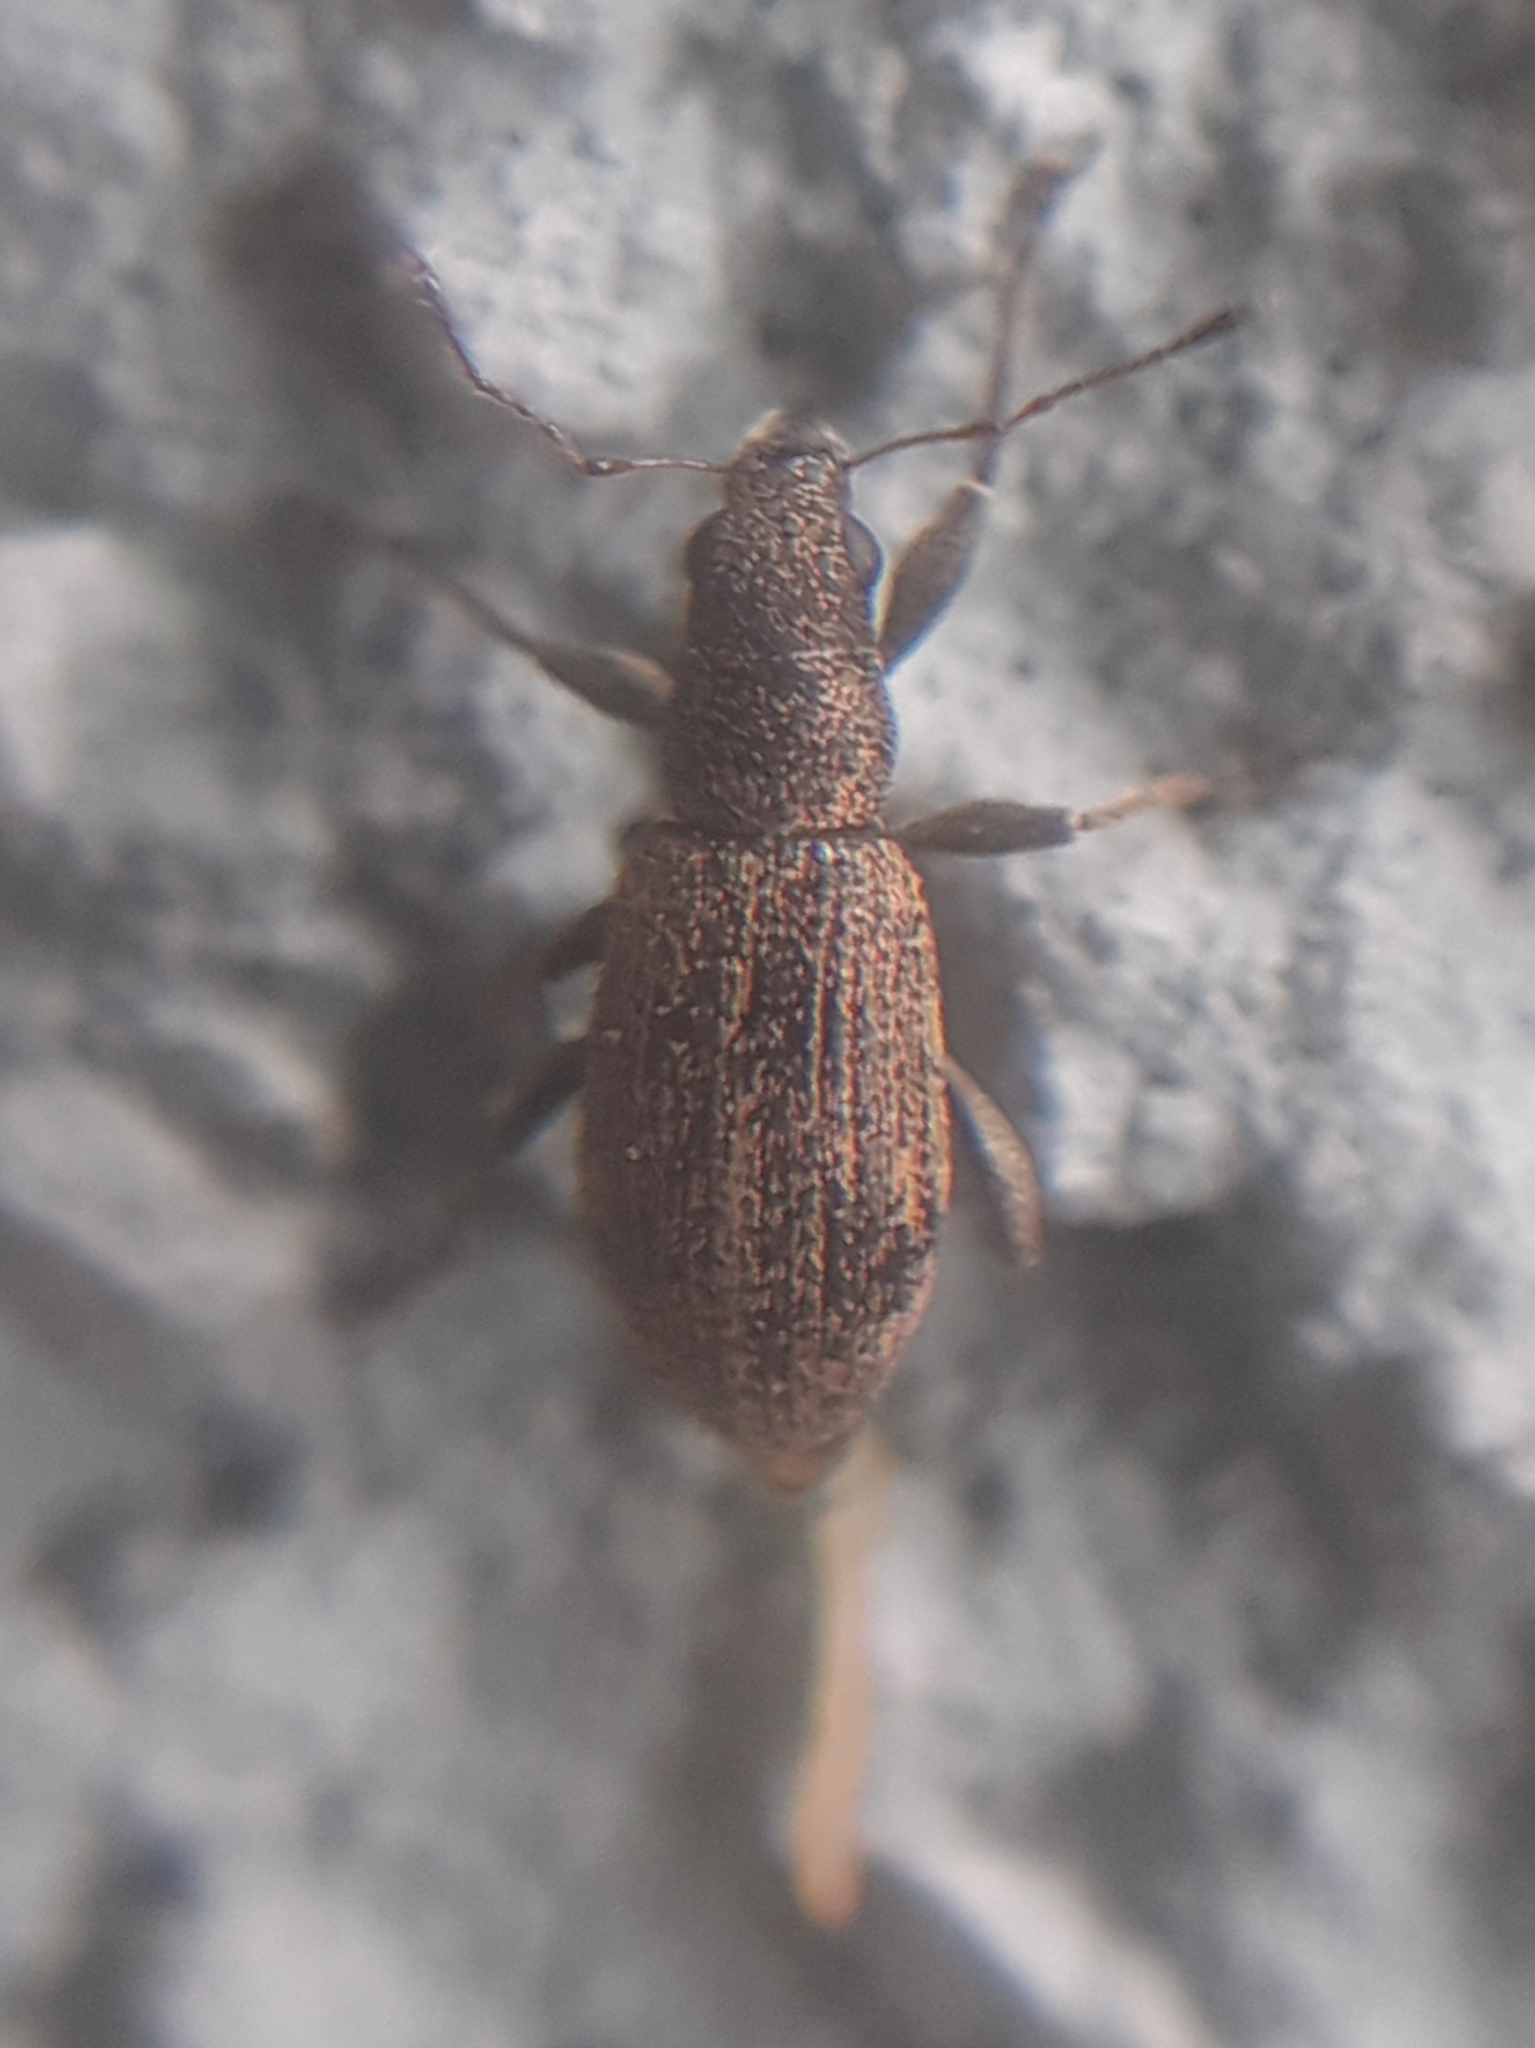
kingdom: Animalia
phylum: Arthropoda
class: Insecta
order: Coleoptera
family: Curculionidae
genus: Polydrusus
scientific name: Polydrusus inustus
